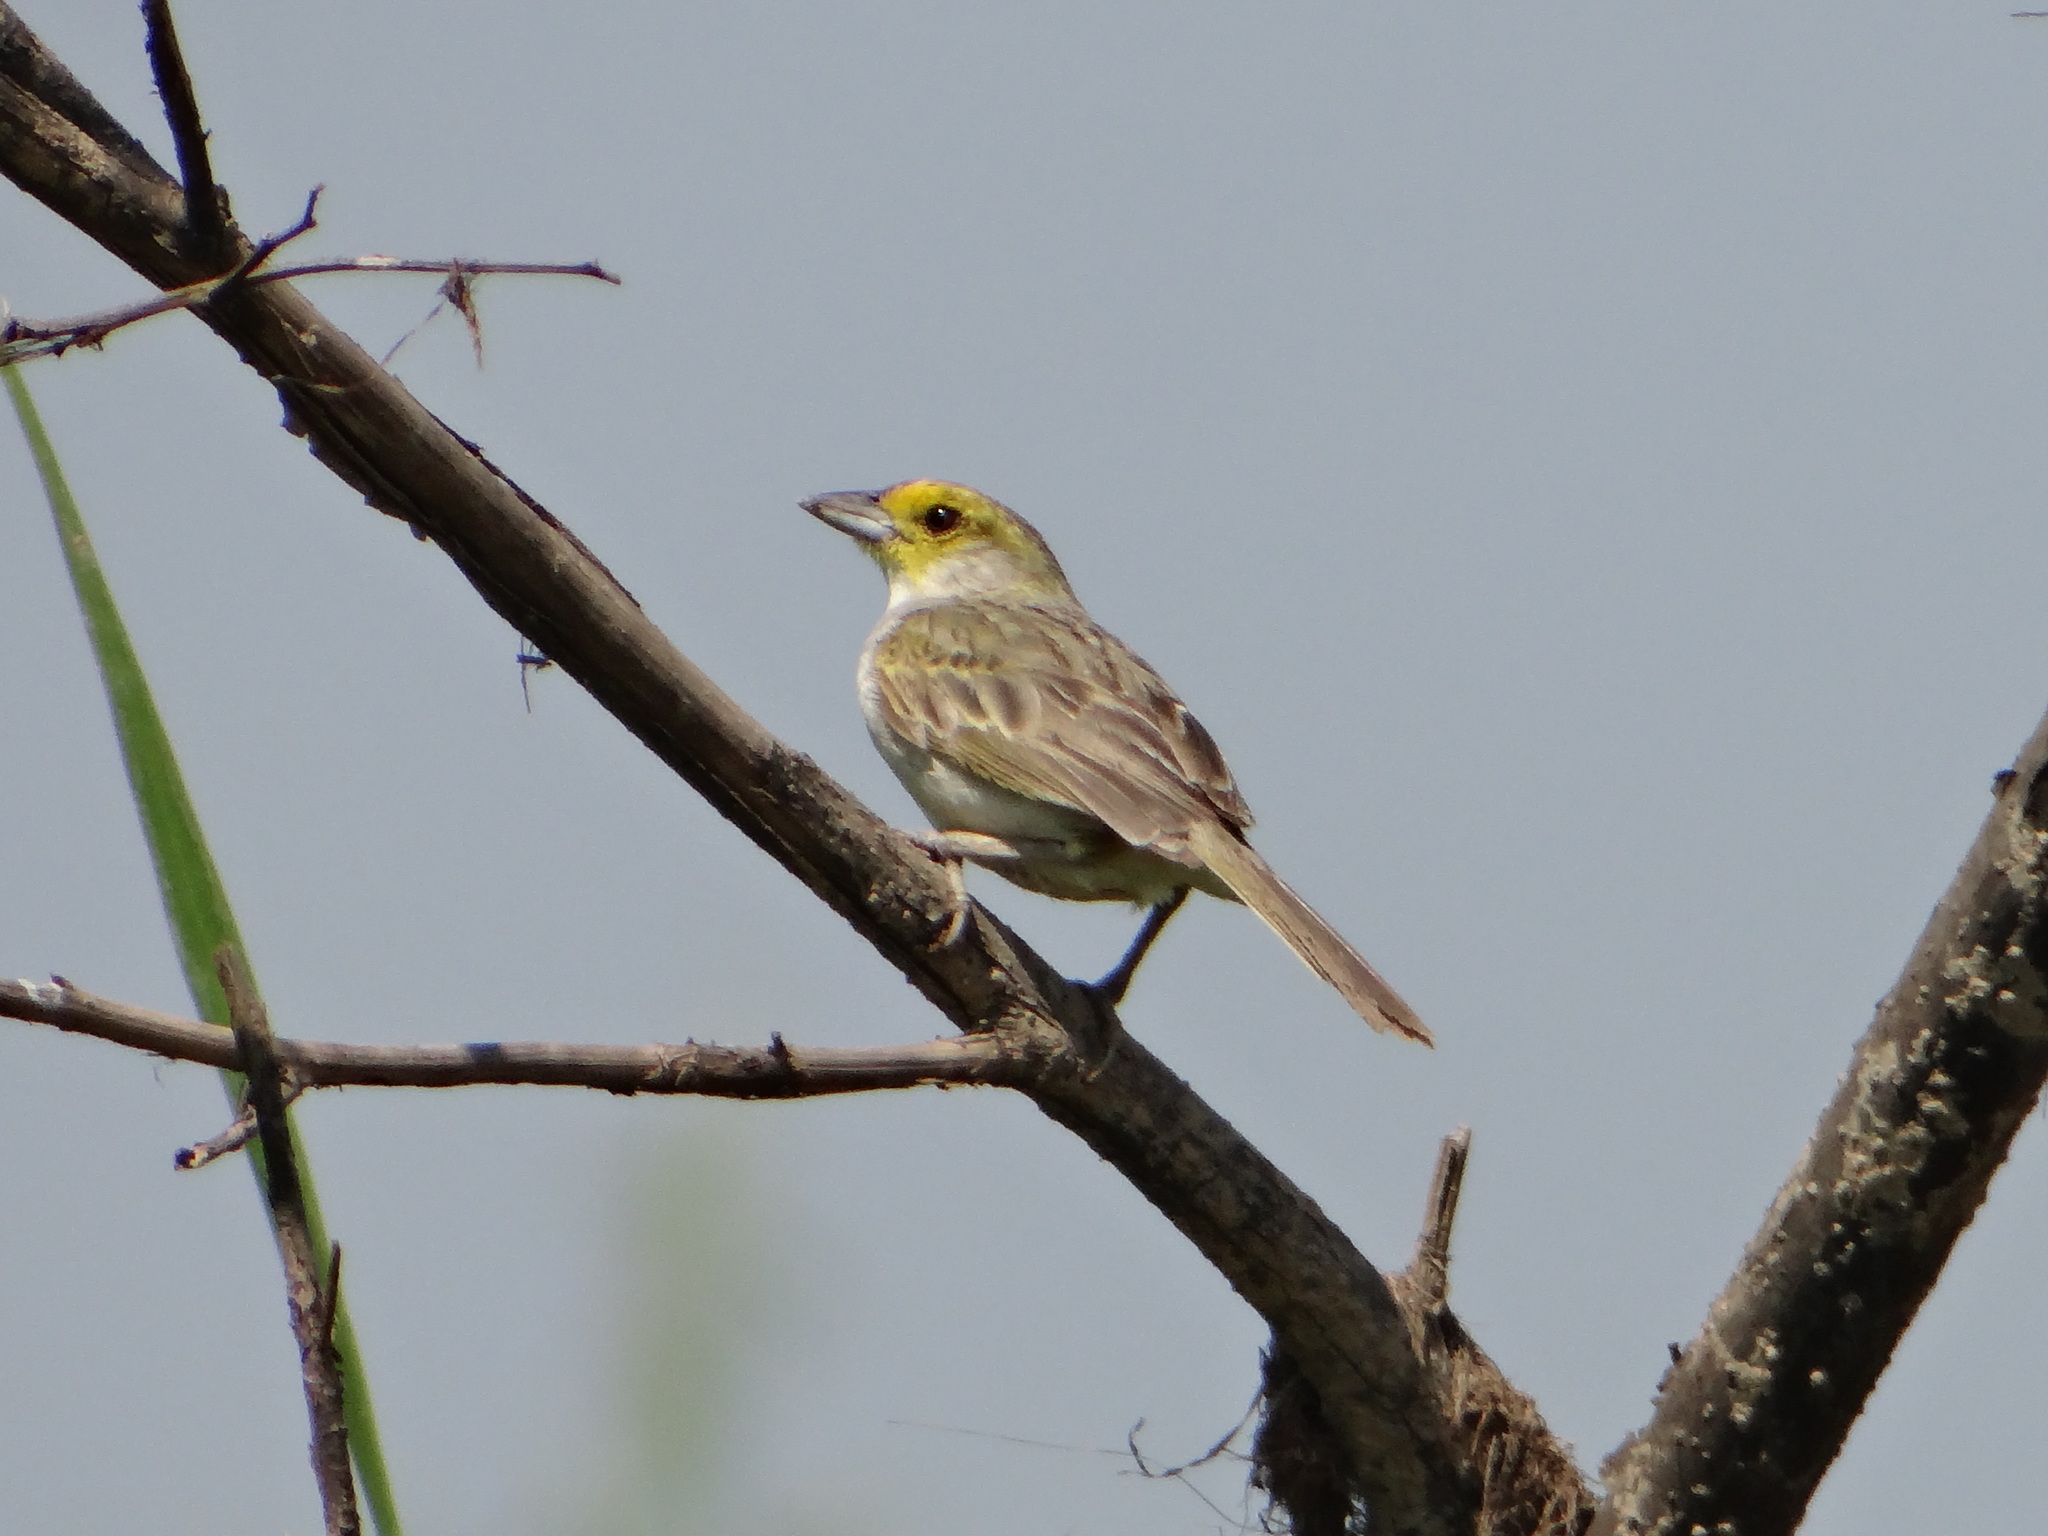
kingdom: Animalia
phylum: Chordata
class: Aves
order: Passeriformes
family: Passerellidae
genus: Ammodramus
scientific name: Ammodramus aurifrons
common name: Yellow-browed sparrow
